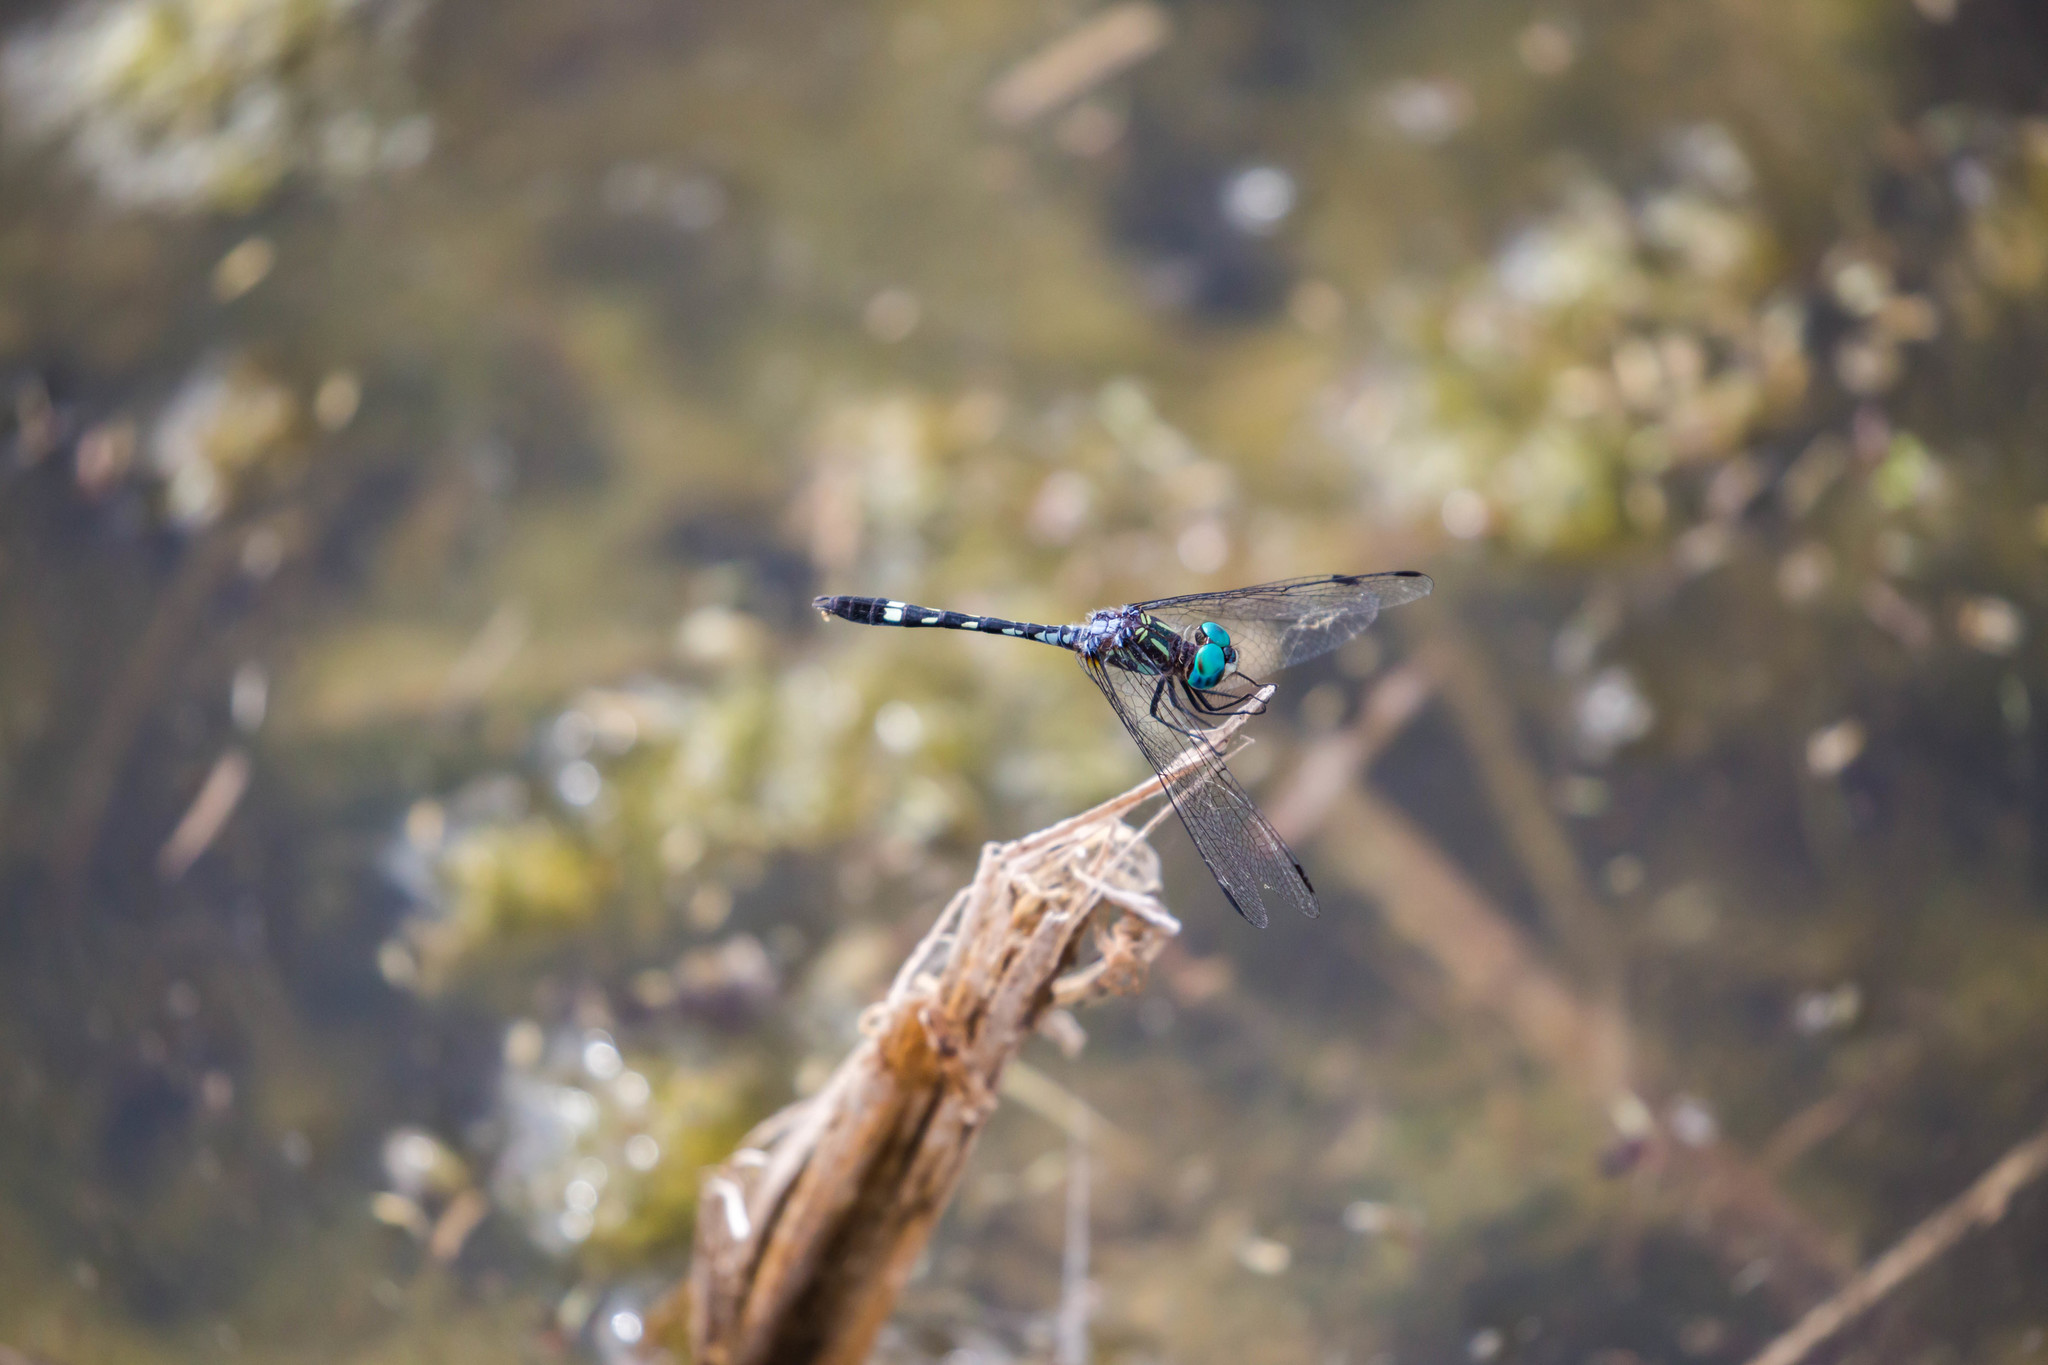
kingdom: Animalia
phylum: Arthropoda
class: Insecta
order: Odonata
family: Libellulidae
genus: Micrathyria
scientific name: Micrathyria hagenii
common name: Thornbush dasher
